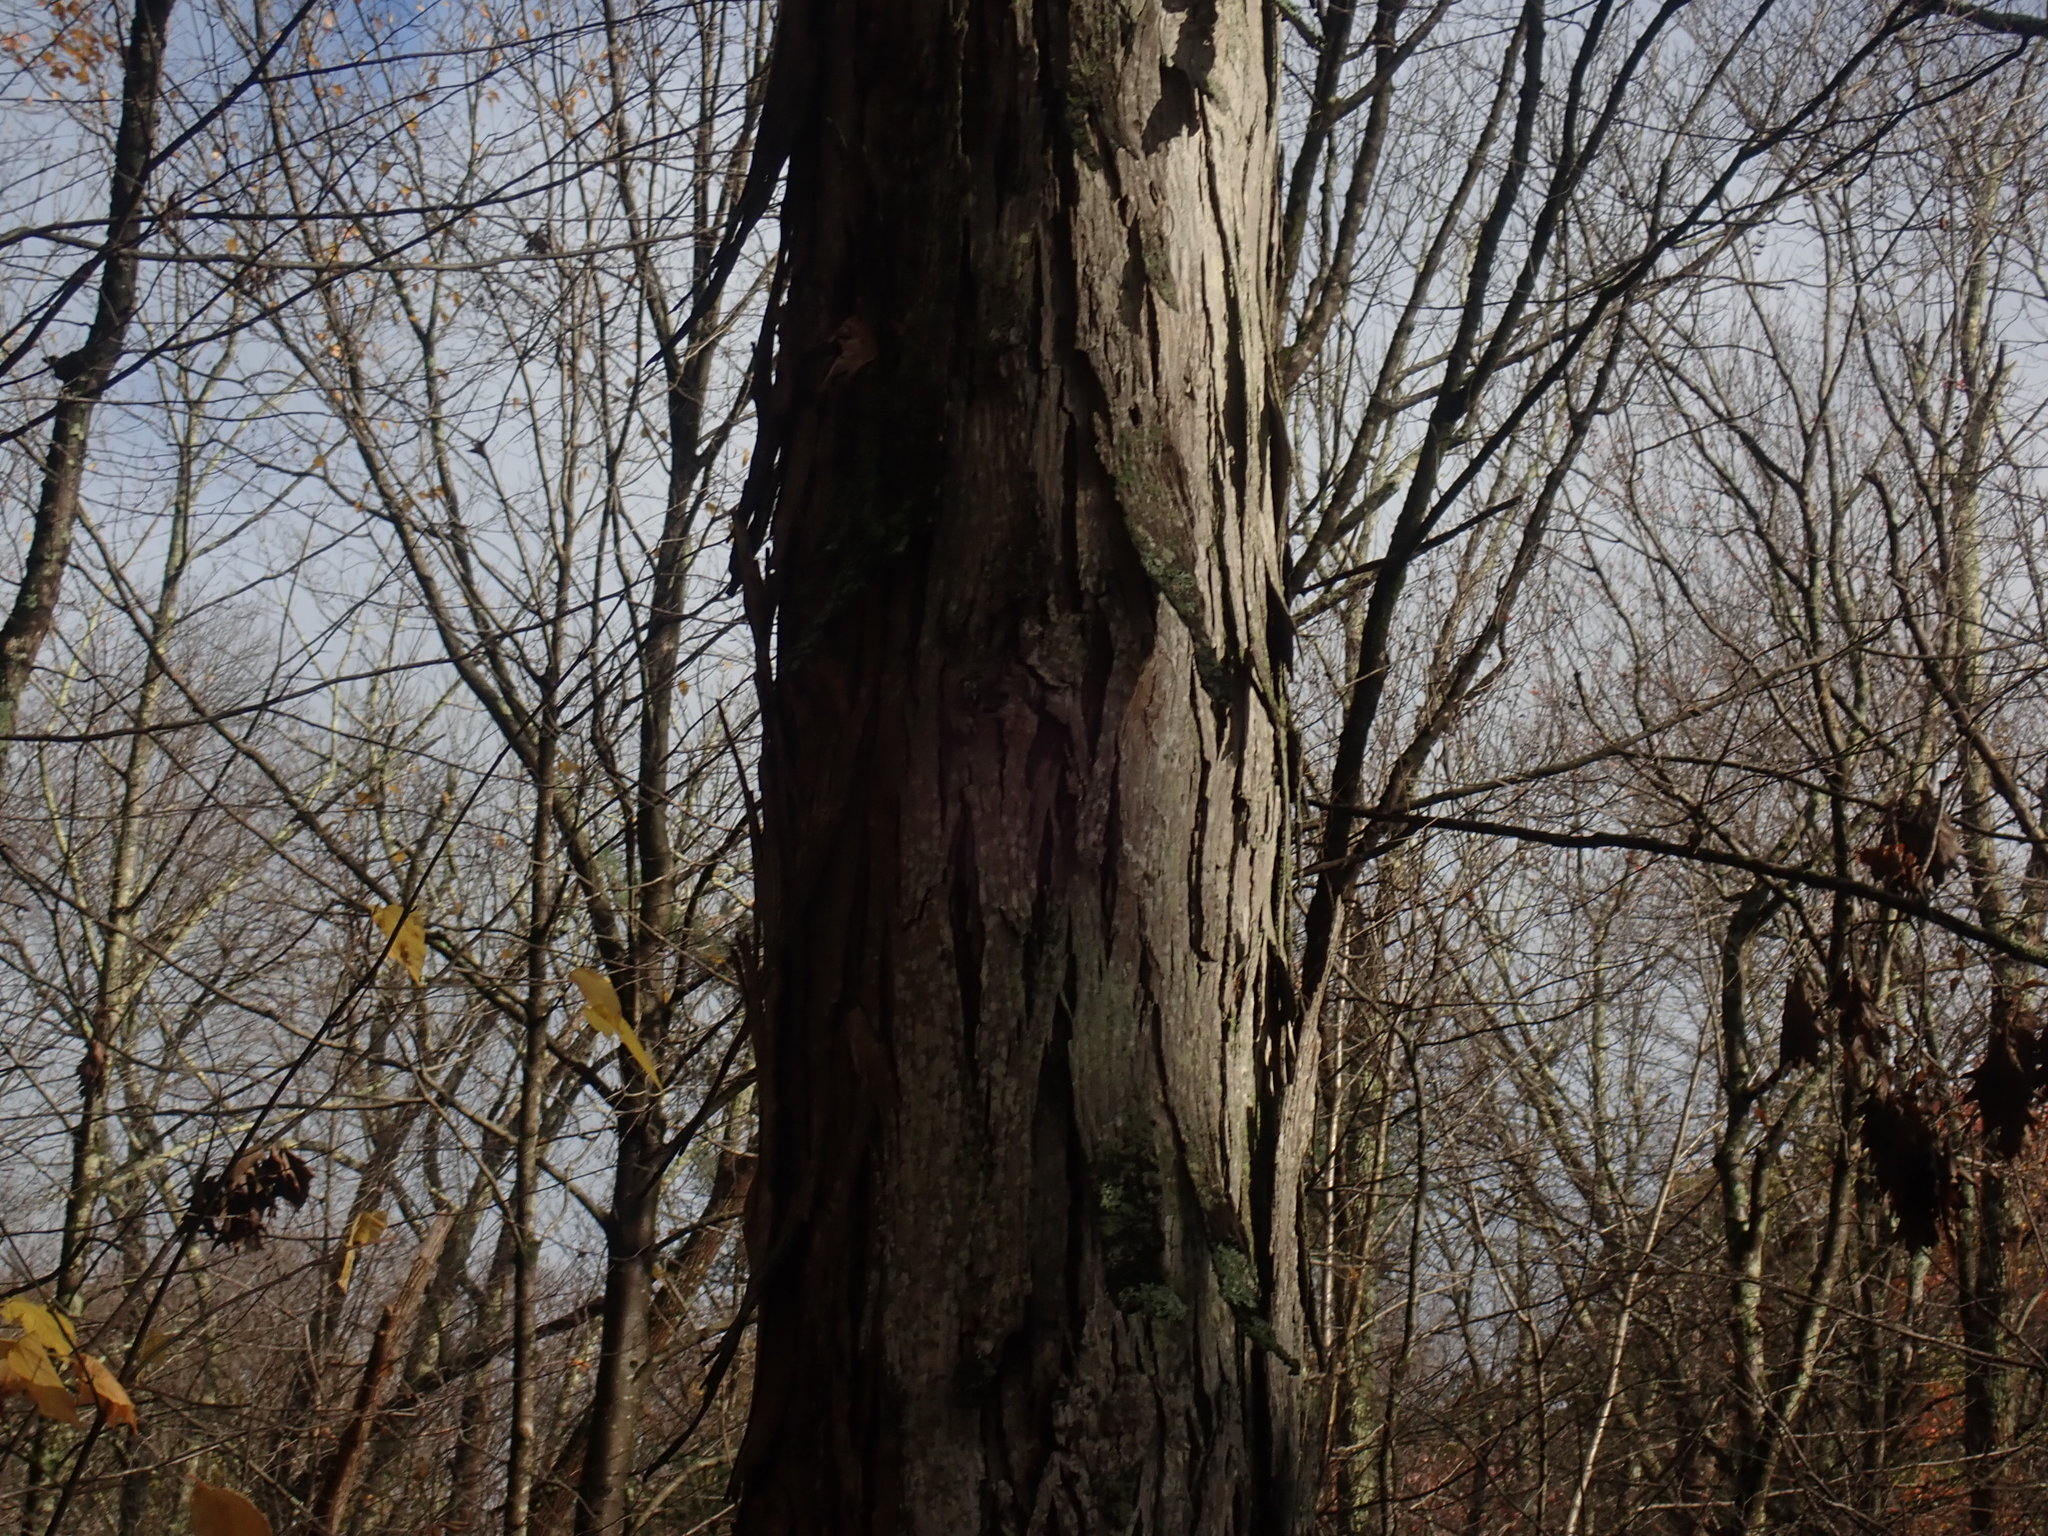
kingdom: Plantae
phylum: Tracheophyta
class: Magnoliopsida
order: Fagales
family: Juglandaceae
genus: Carya
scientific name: Carya ovata
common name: Shagbark hickory
